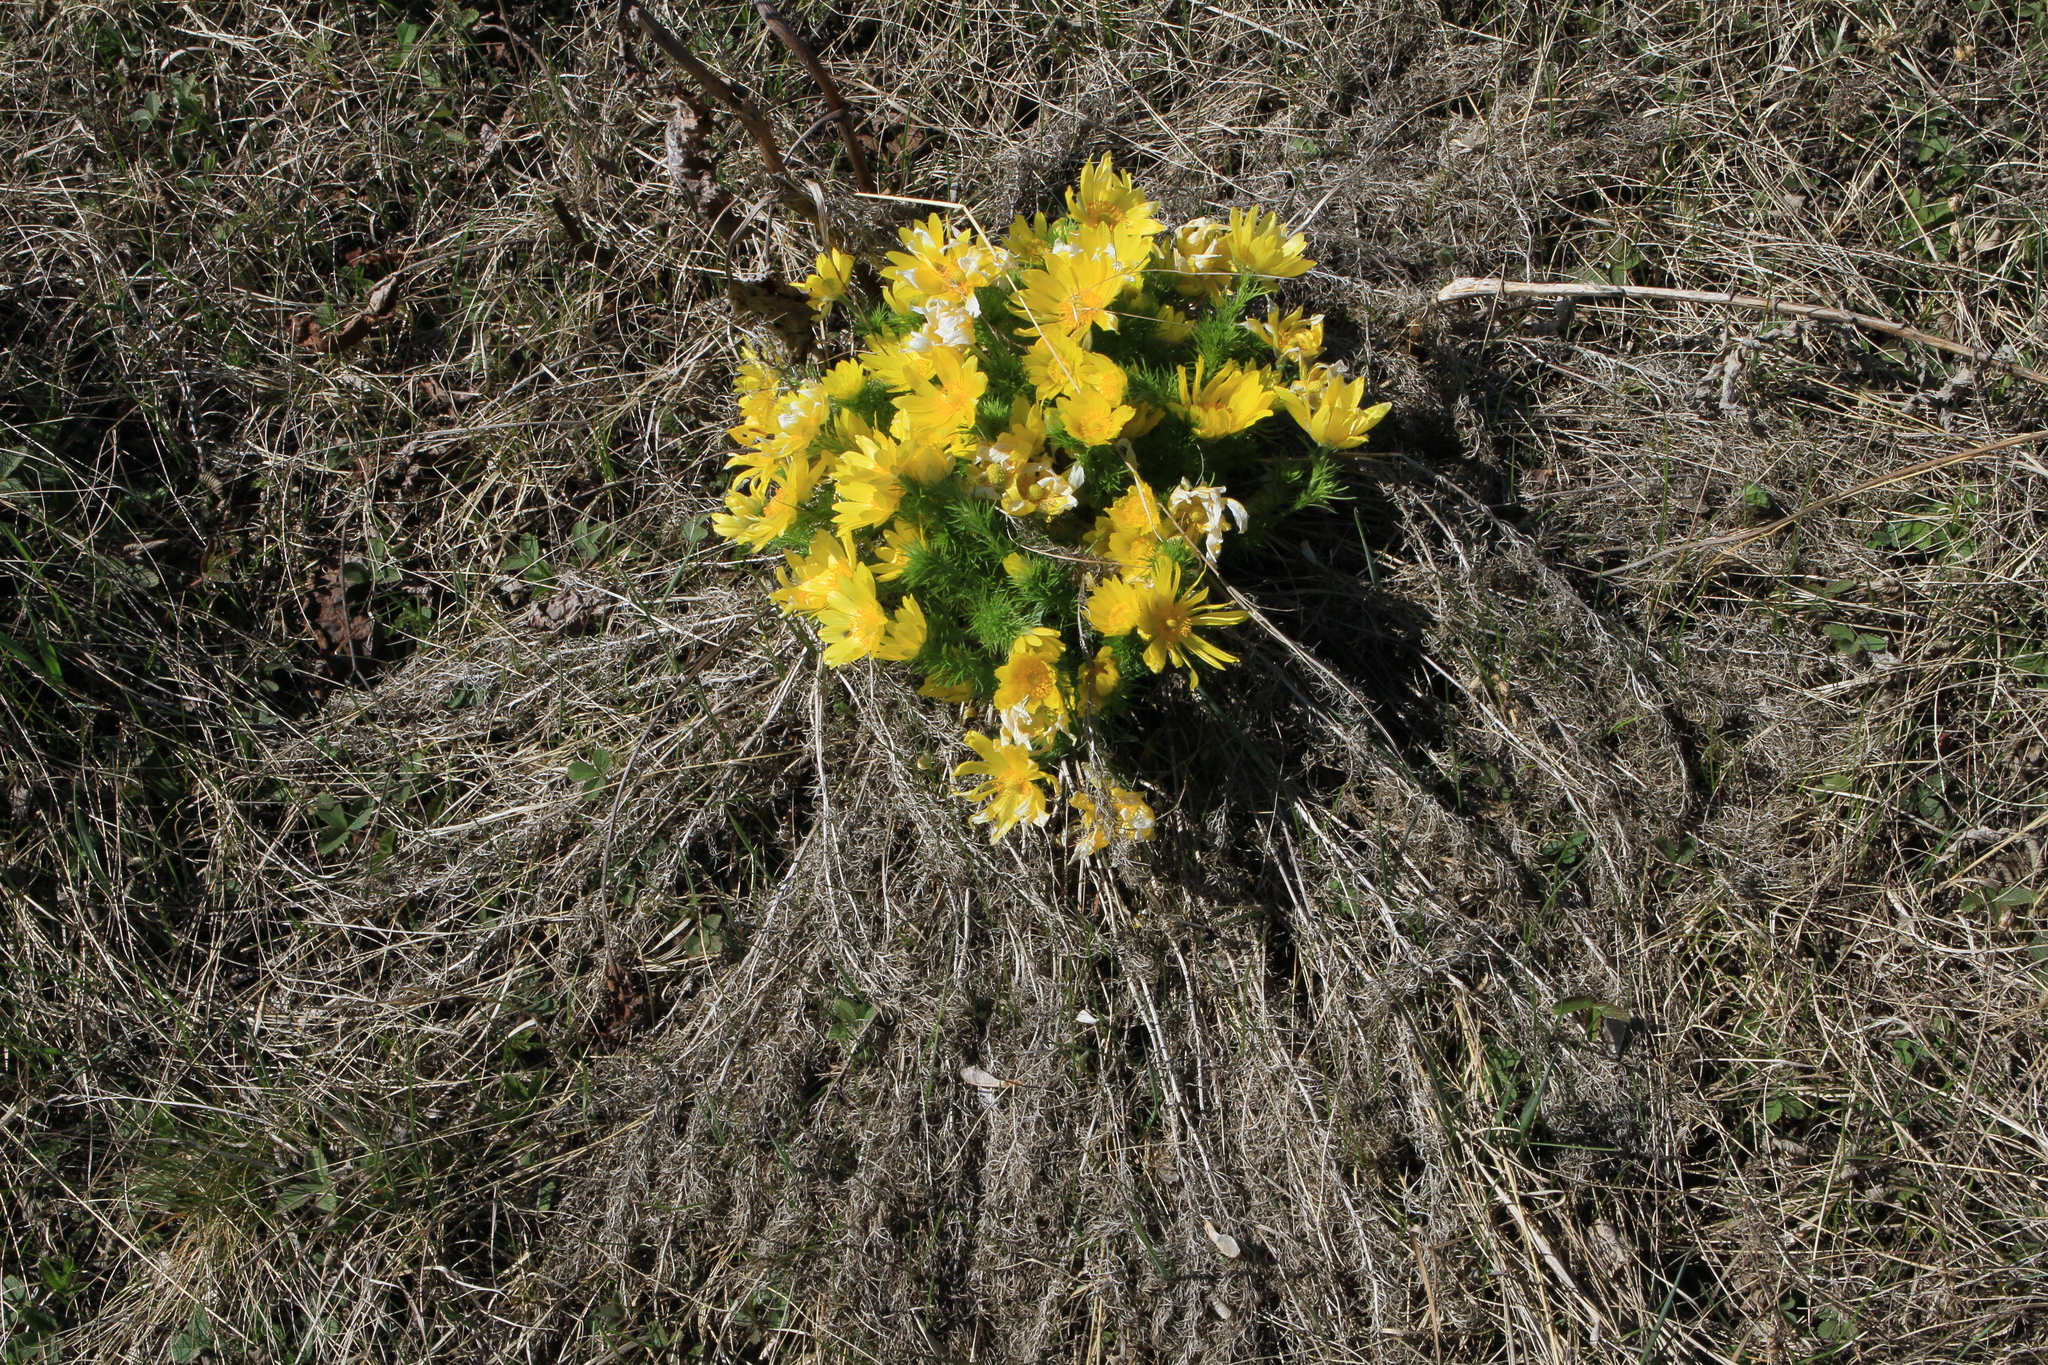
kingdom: Plantae
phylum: Tracheophyta
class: Magnoliopsida
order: Ranunculales
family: Ranunculaceae
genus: Adonis
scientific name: Adonis vernalis
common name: Yellow pheasants-eye
